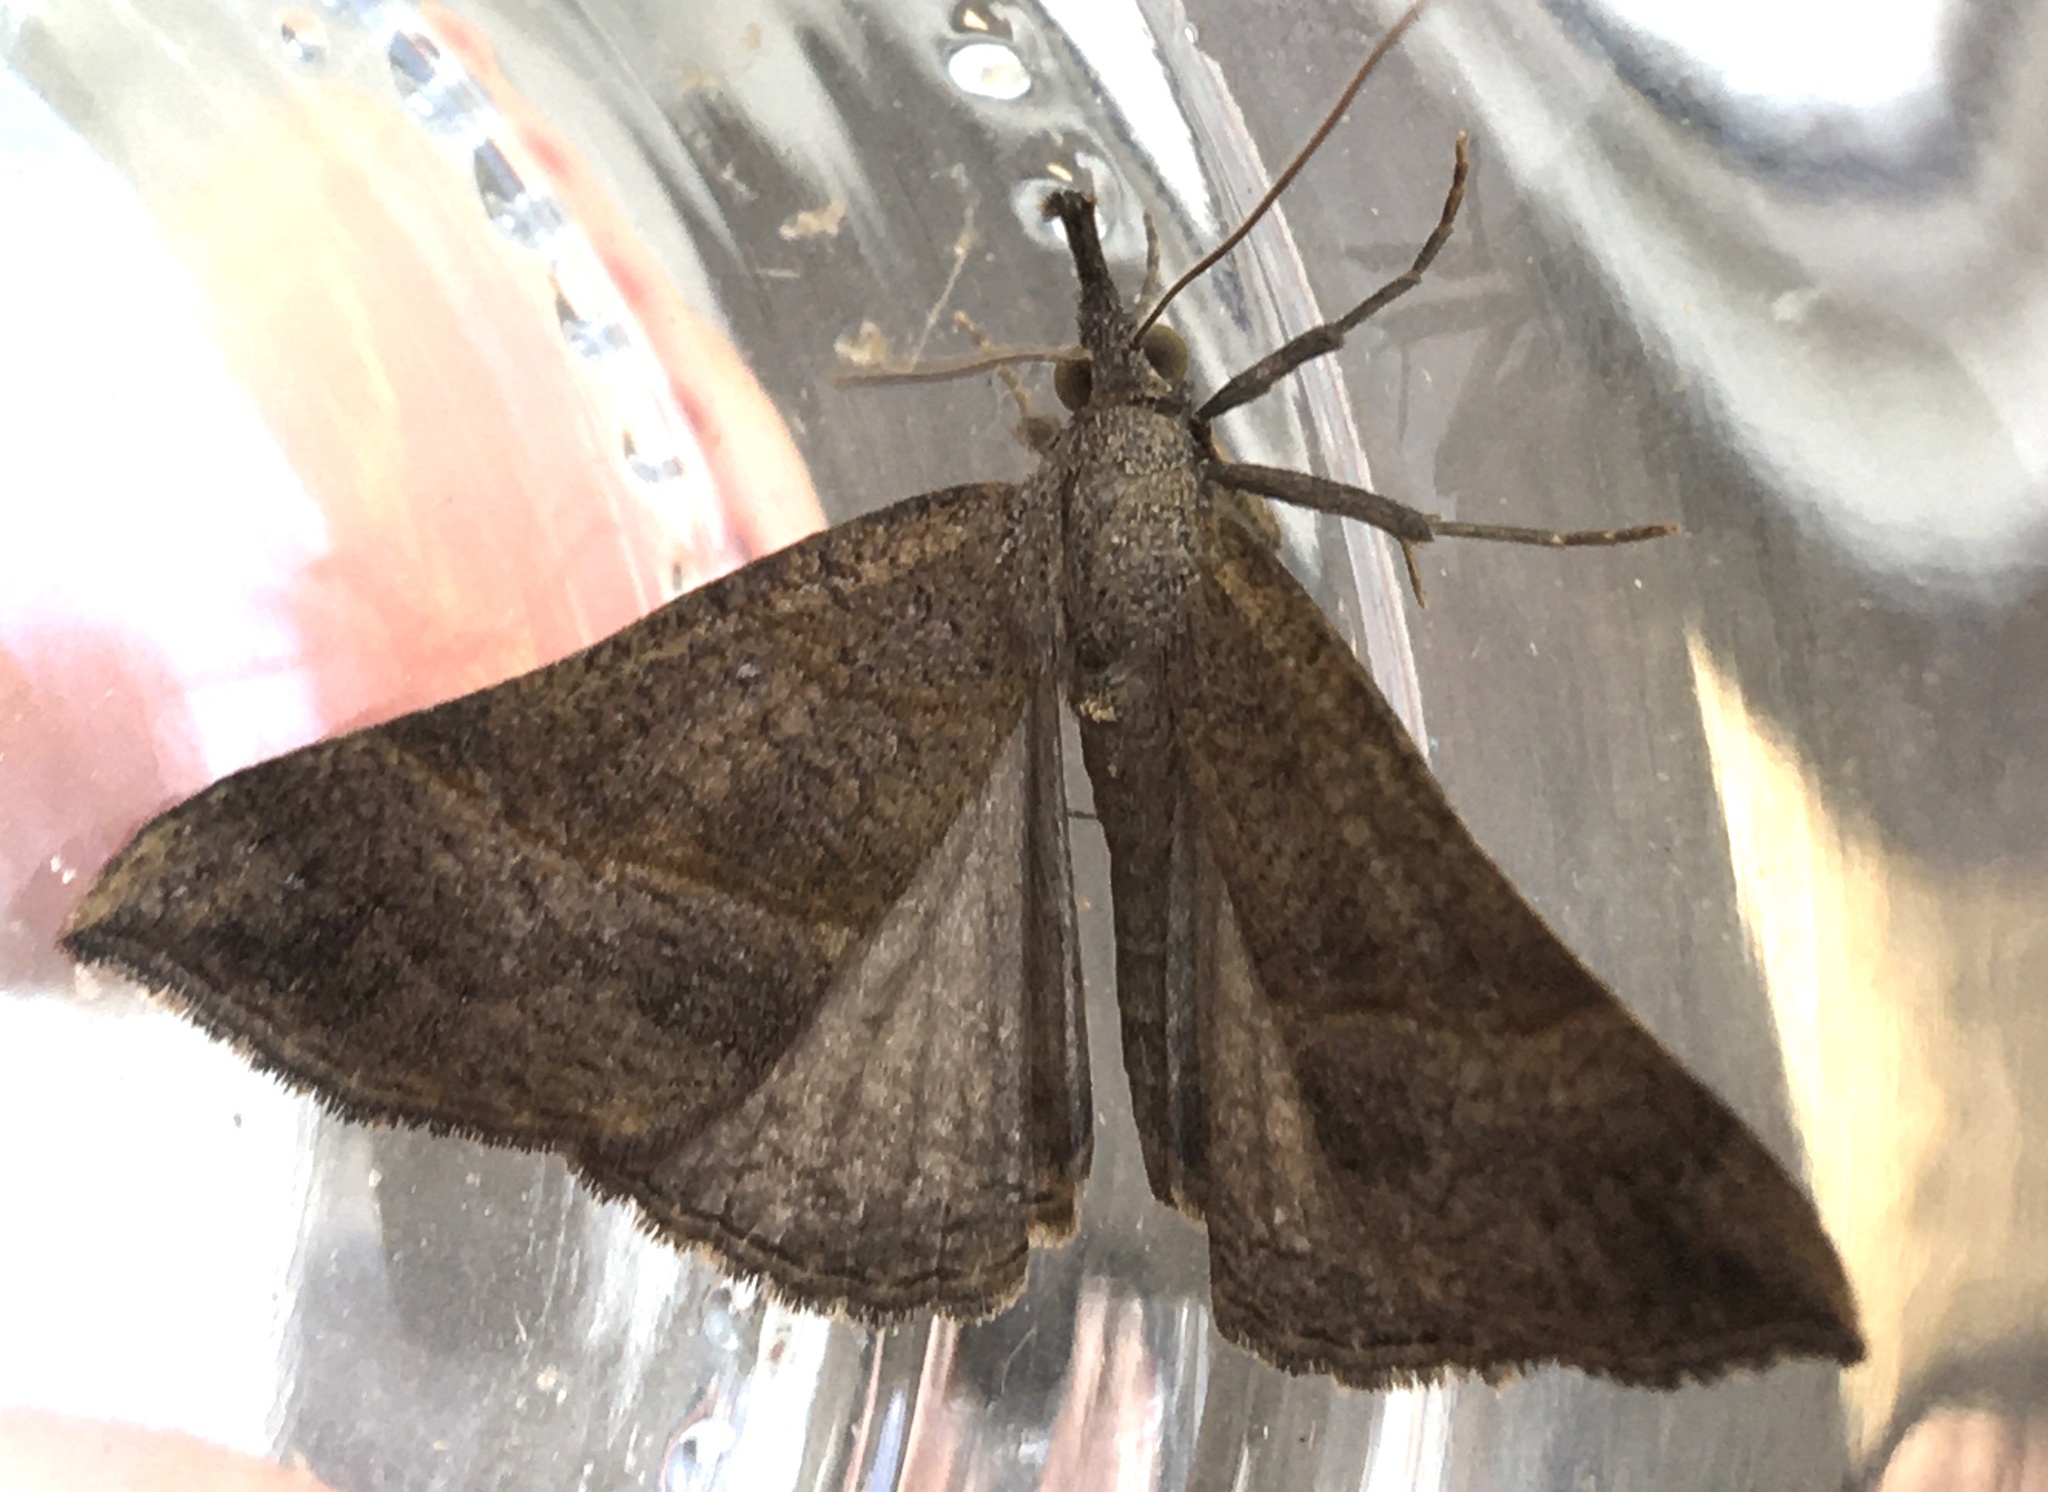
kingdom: Animalia
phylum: Arthropoda
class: Insecta
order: Lepidoptera
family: Erebidae
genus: Hypena
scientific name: Hypena proboscidalis
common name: Snout
